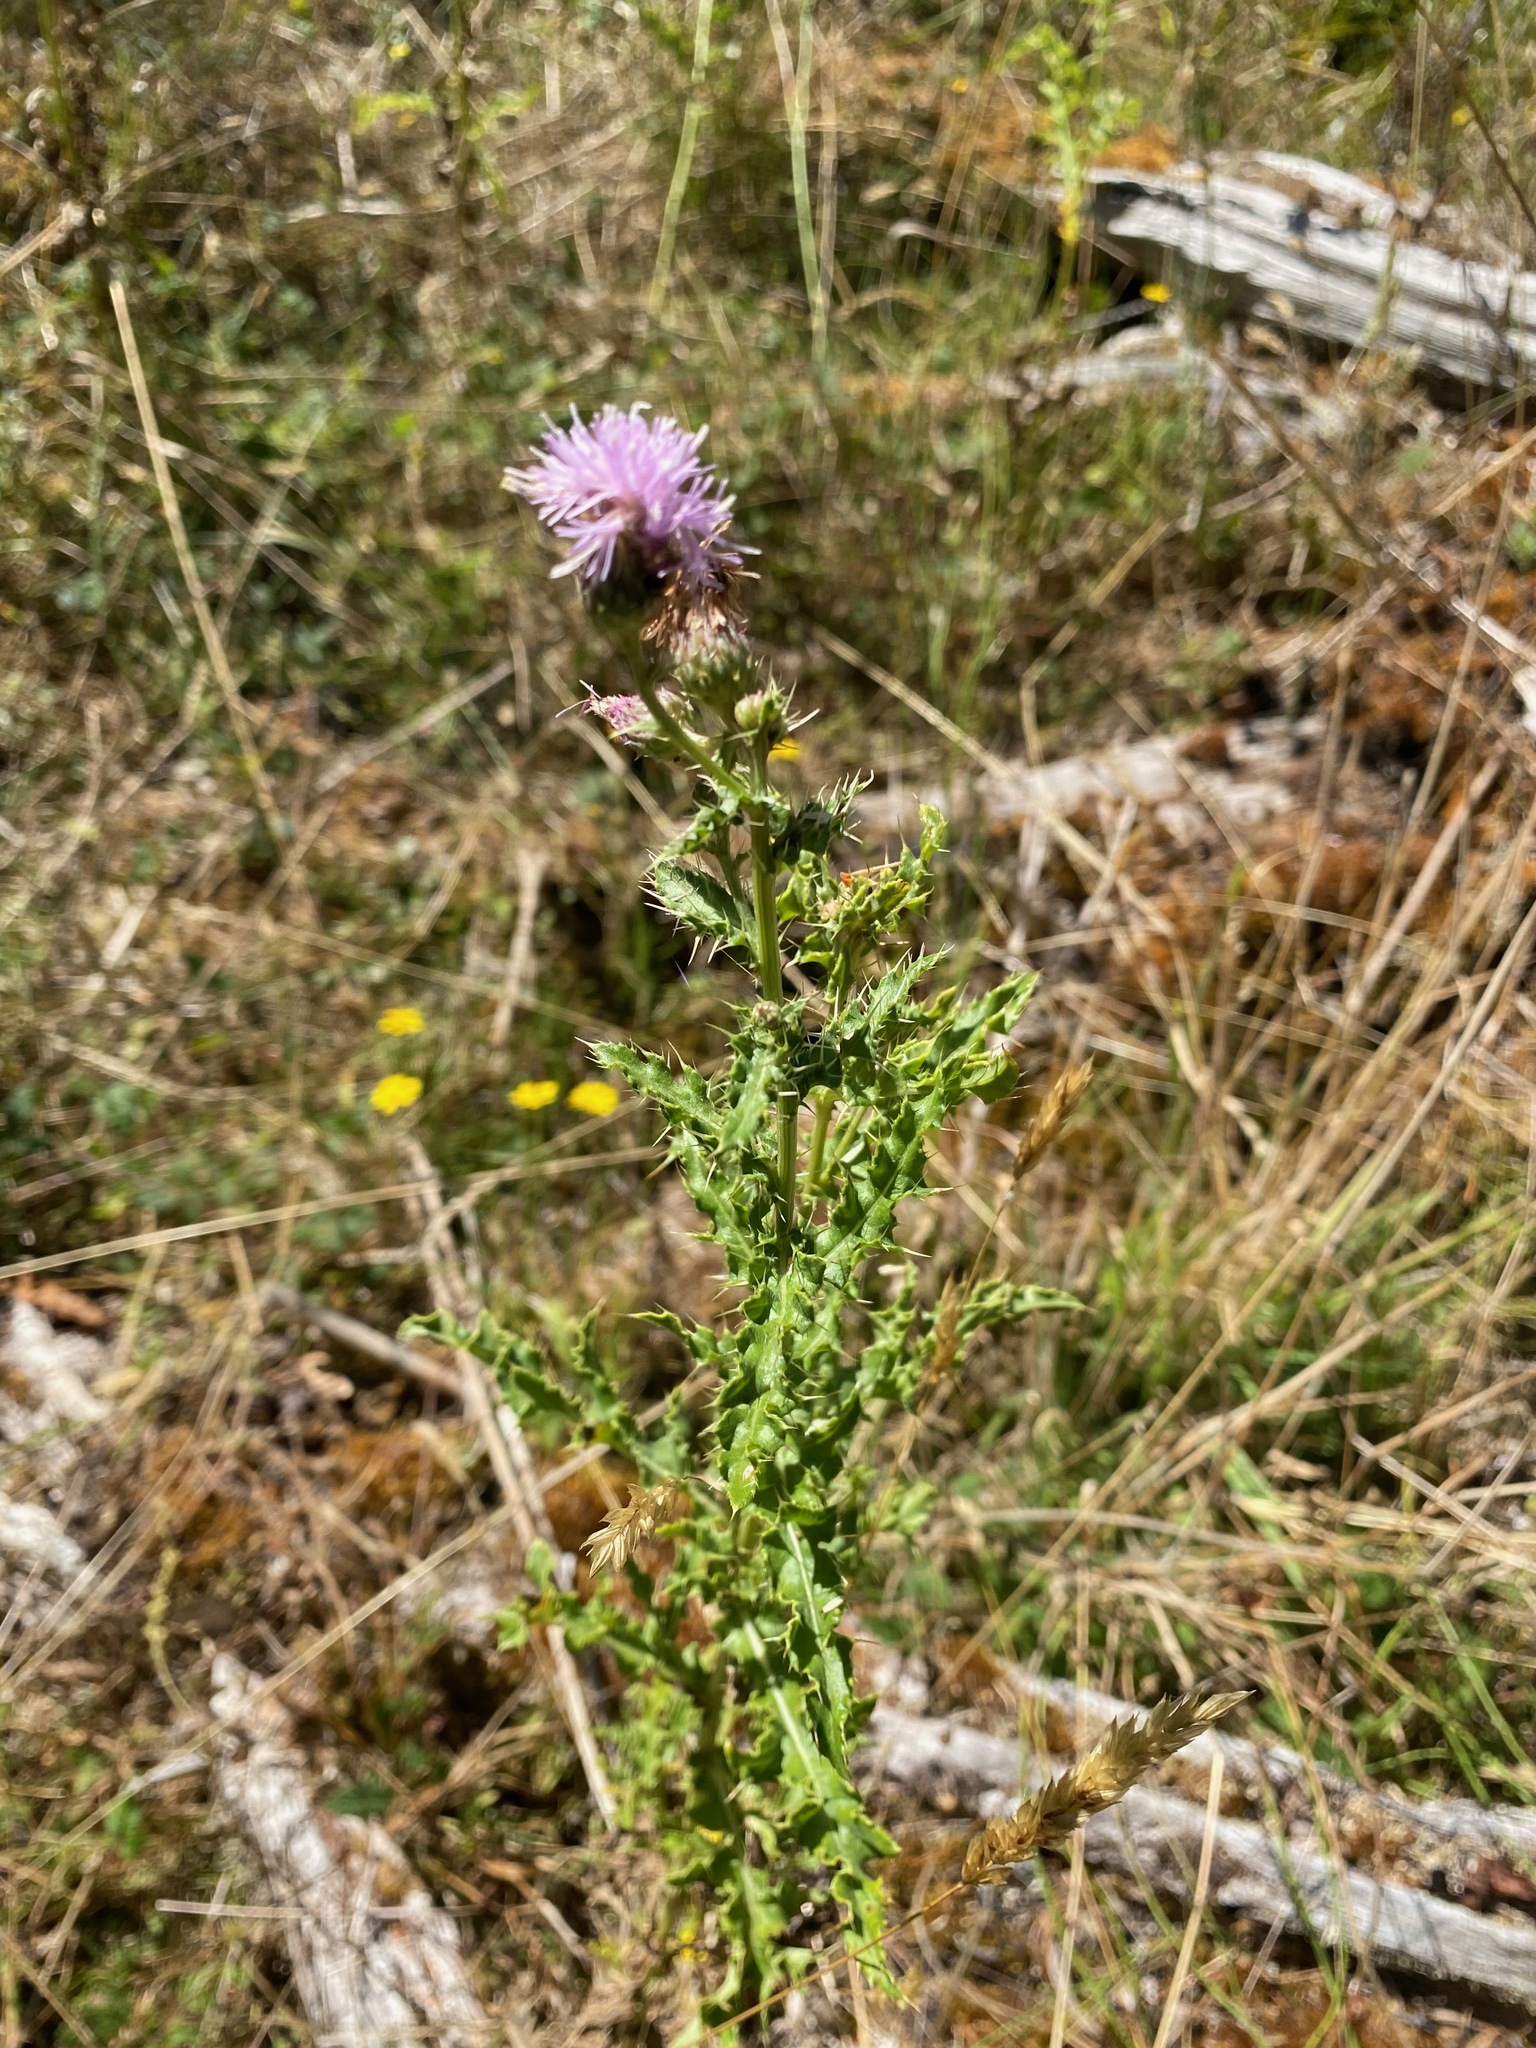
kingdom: Plantae
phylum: Tracheophyta
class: Magnoliopsida
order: Asterales
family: Asteraceae
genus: Cirsium
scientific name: Cirsium arvense
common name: Creeping thistle
